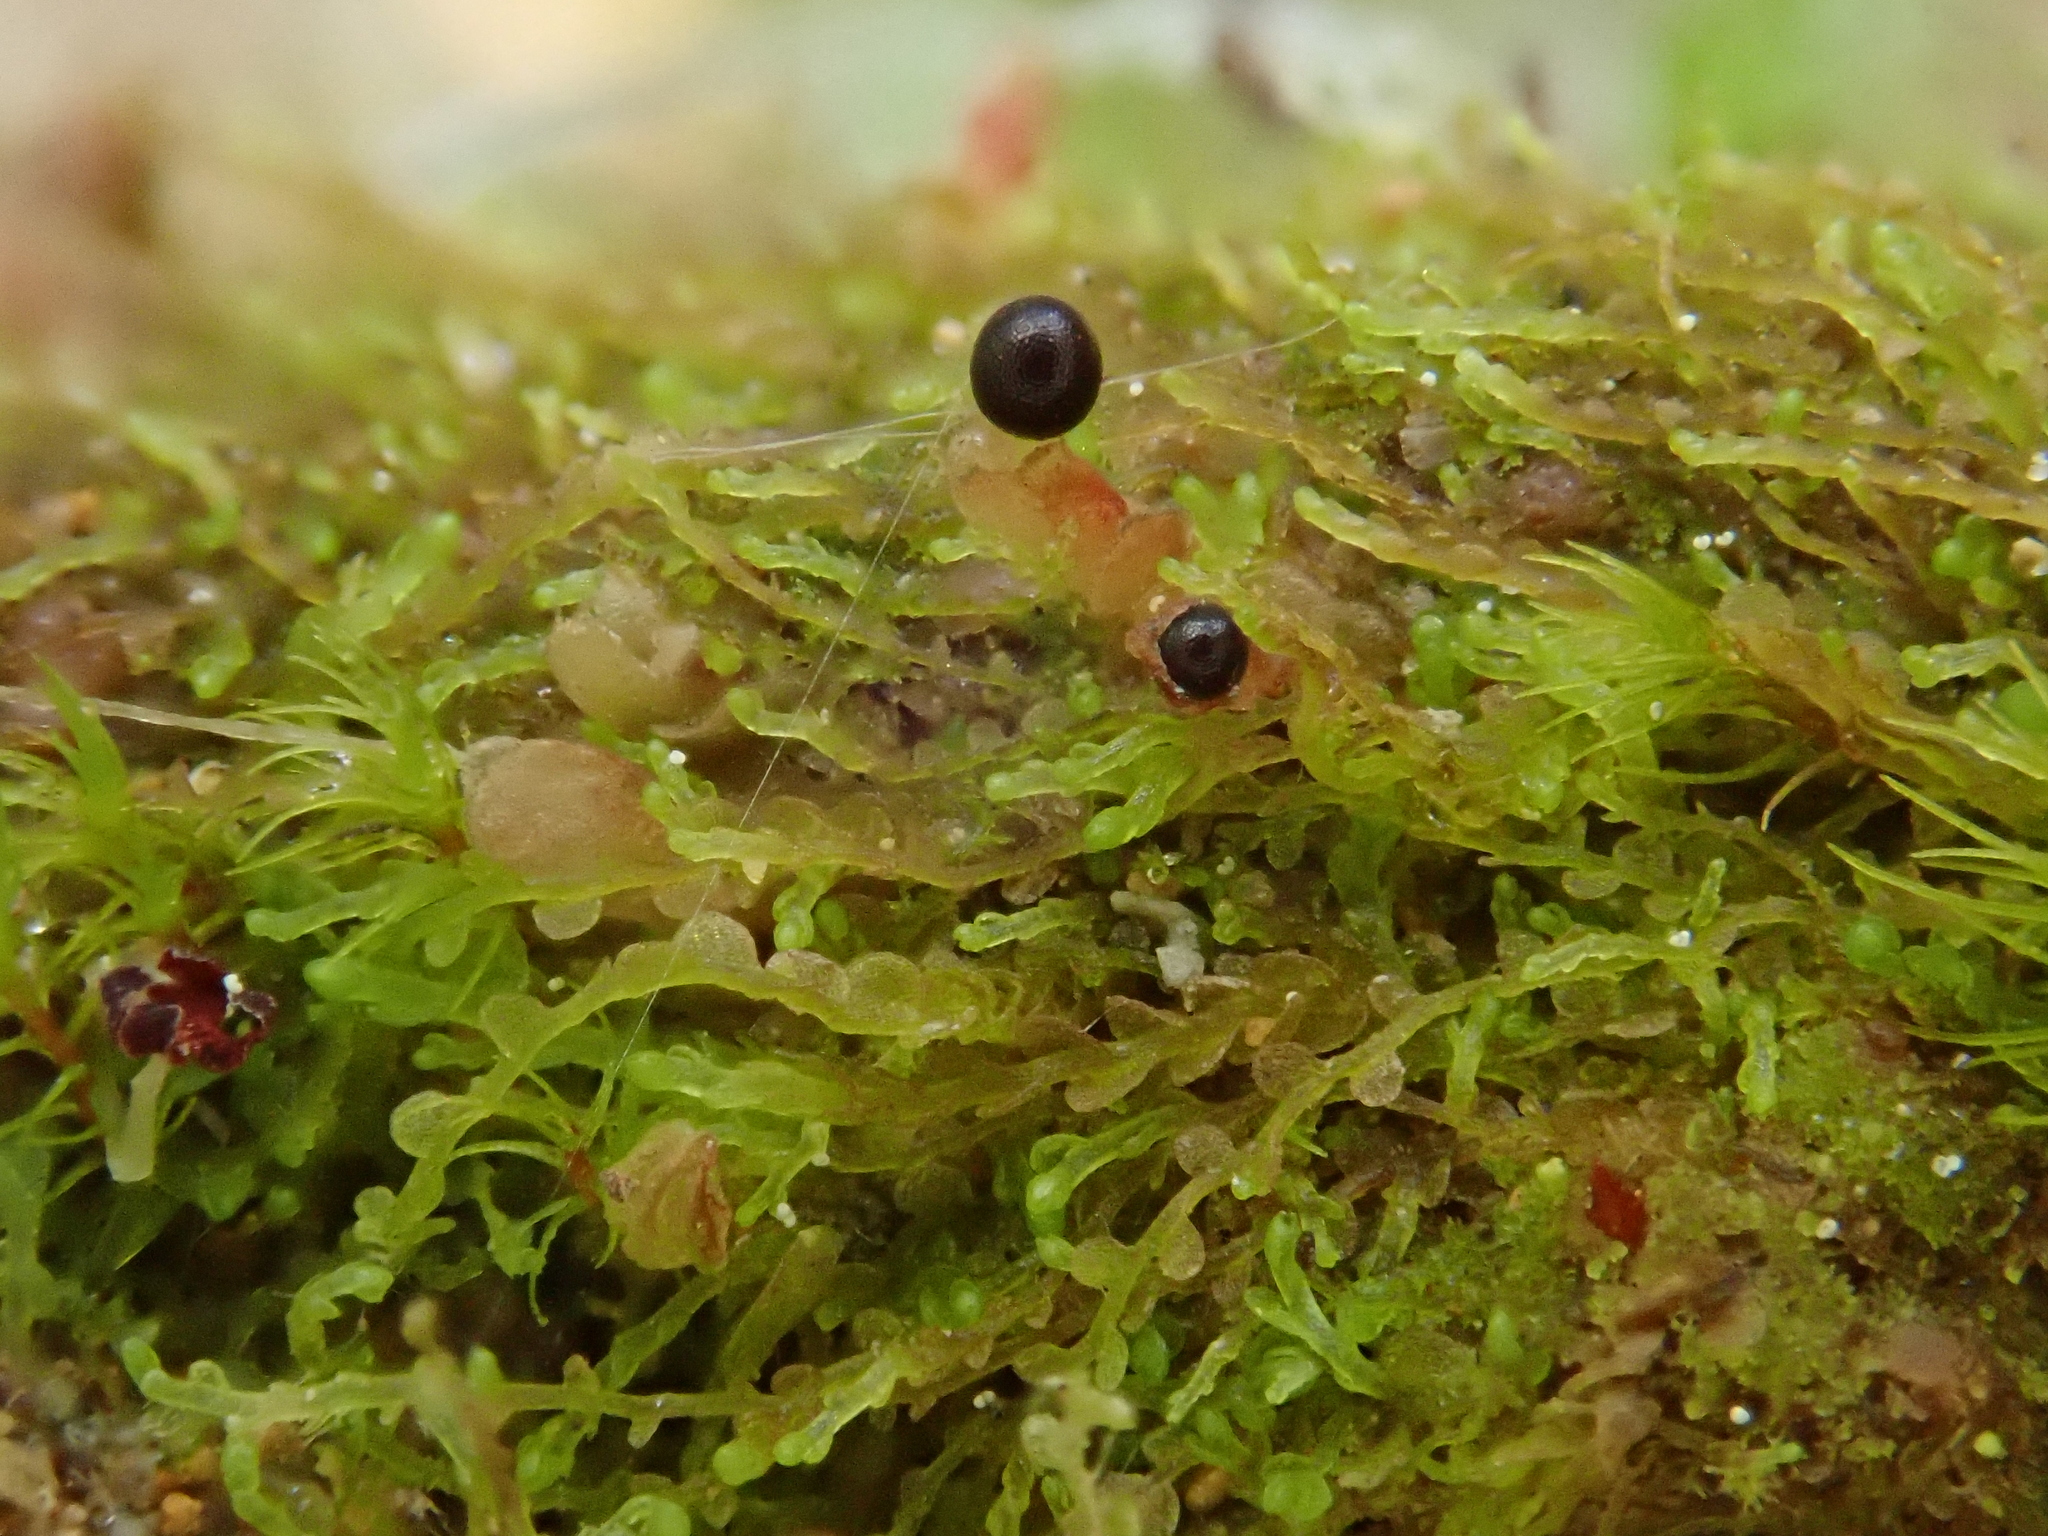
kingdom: Plantae
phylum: Marchantiophyta
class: Jungermanniopsida
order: Jungermanniales
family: Jungermanniaceae
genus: Jungermannia
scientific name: Jungermannia atrovirens
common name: Dark-green flapwort
